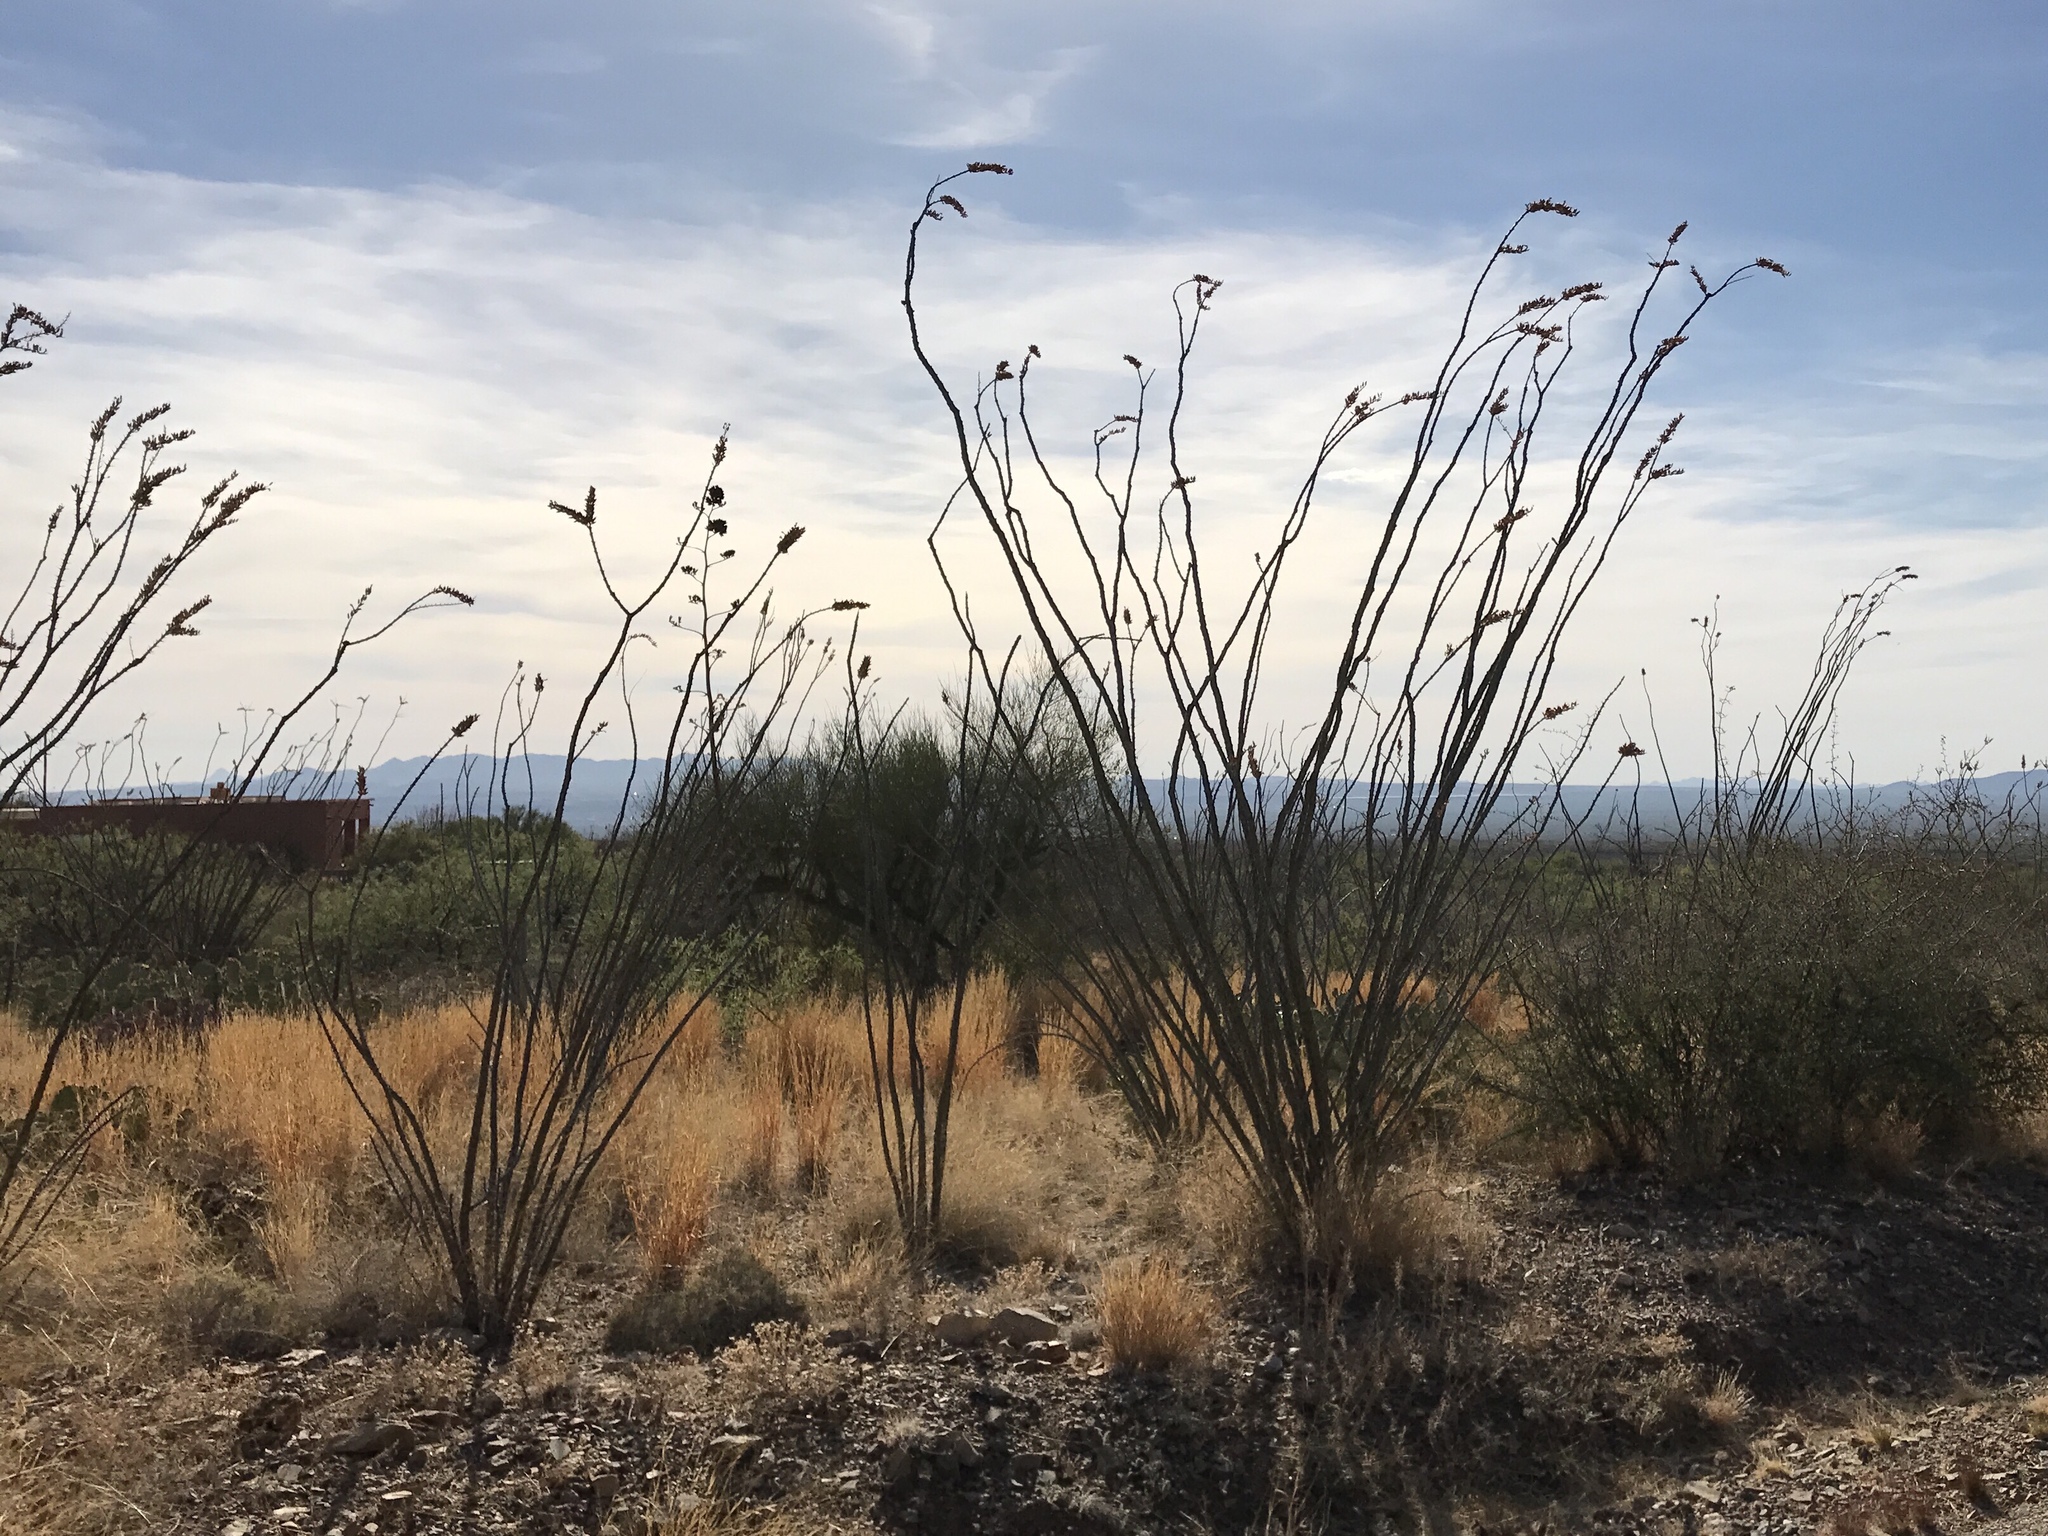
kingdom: Plantae
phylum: Tracheophyta
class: Magnoliopsida
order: Ericales
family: Fouquieriaceae
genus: Fouquieria
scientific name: Fouquieria splendens
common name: Vine-cactus
